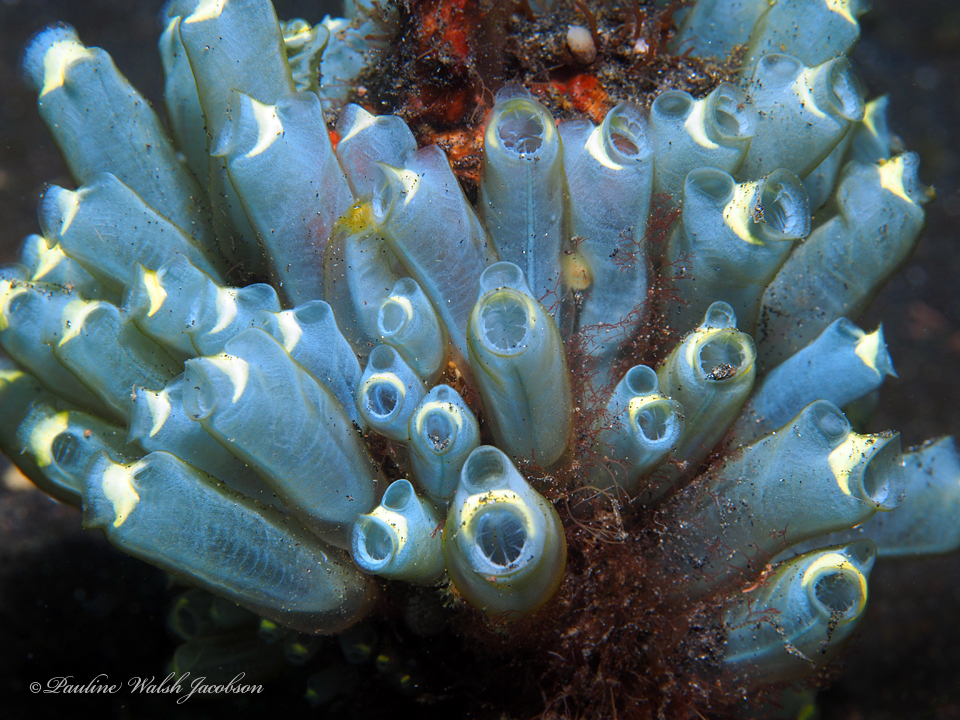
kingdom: Animalia
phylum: Chordata
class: Ascidiacea
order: Aplousobranchia
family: Clavelinidae
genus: Clavelina
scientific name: Clavelina cyclus
